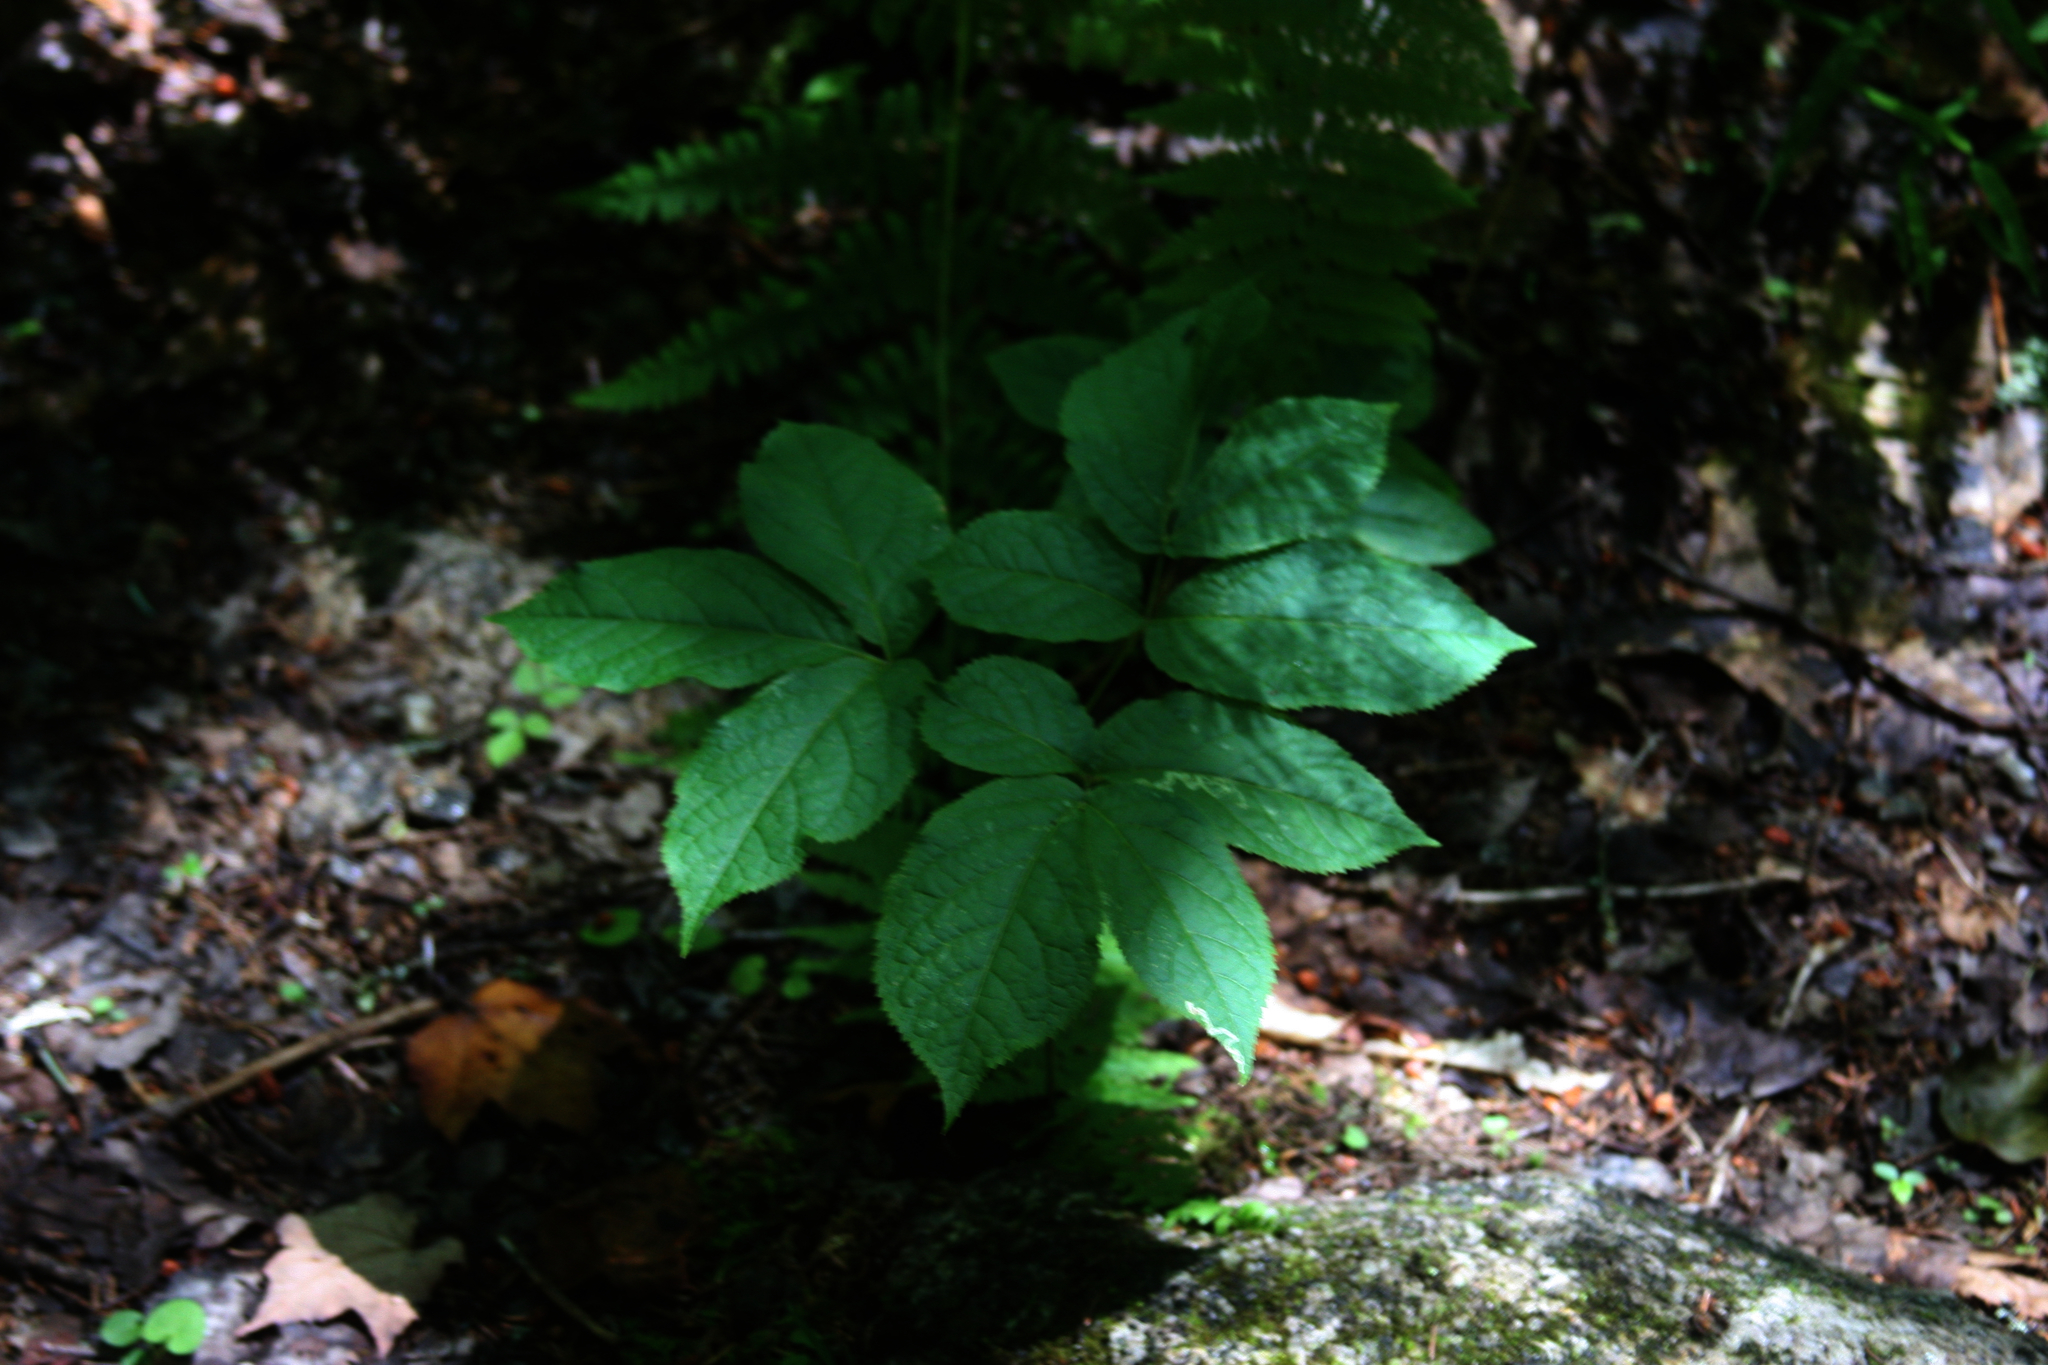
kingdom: Plantae
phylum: Tracheophyta
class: Magnoliopsida
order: Apiales
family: Araliaceae
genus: Aralia
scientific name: Aralia nudicaulis
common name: Wild sarsaparilla
